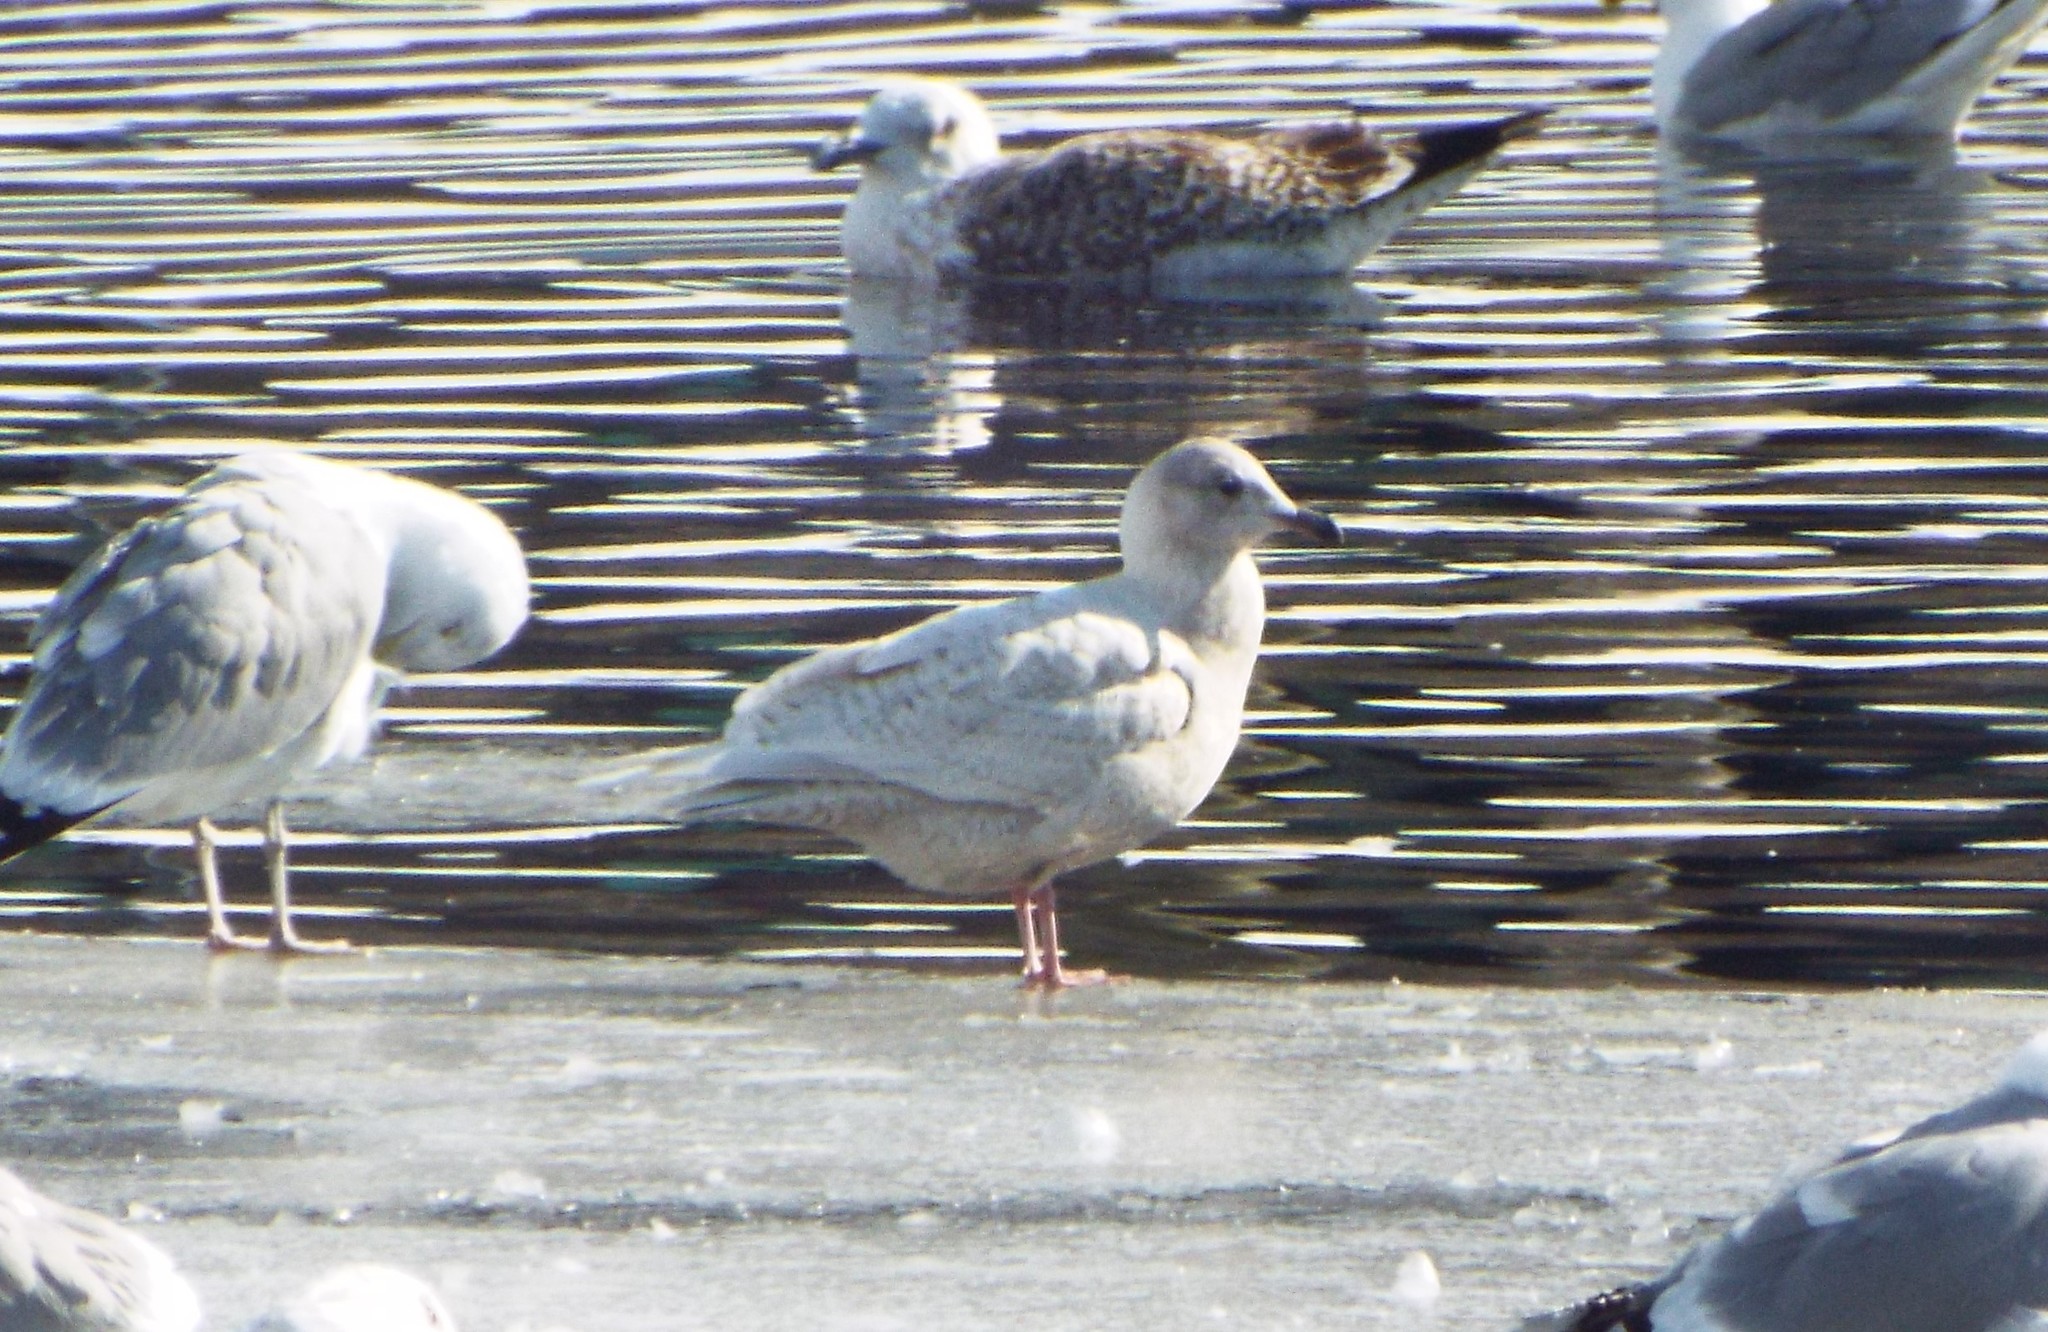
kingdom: Animalia
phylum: Chordata
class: Aves
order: Charadriiformes
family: Laridae
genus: Larus
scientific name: Larus glaucoides
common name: Iceland gull
